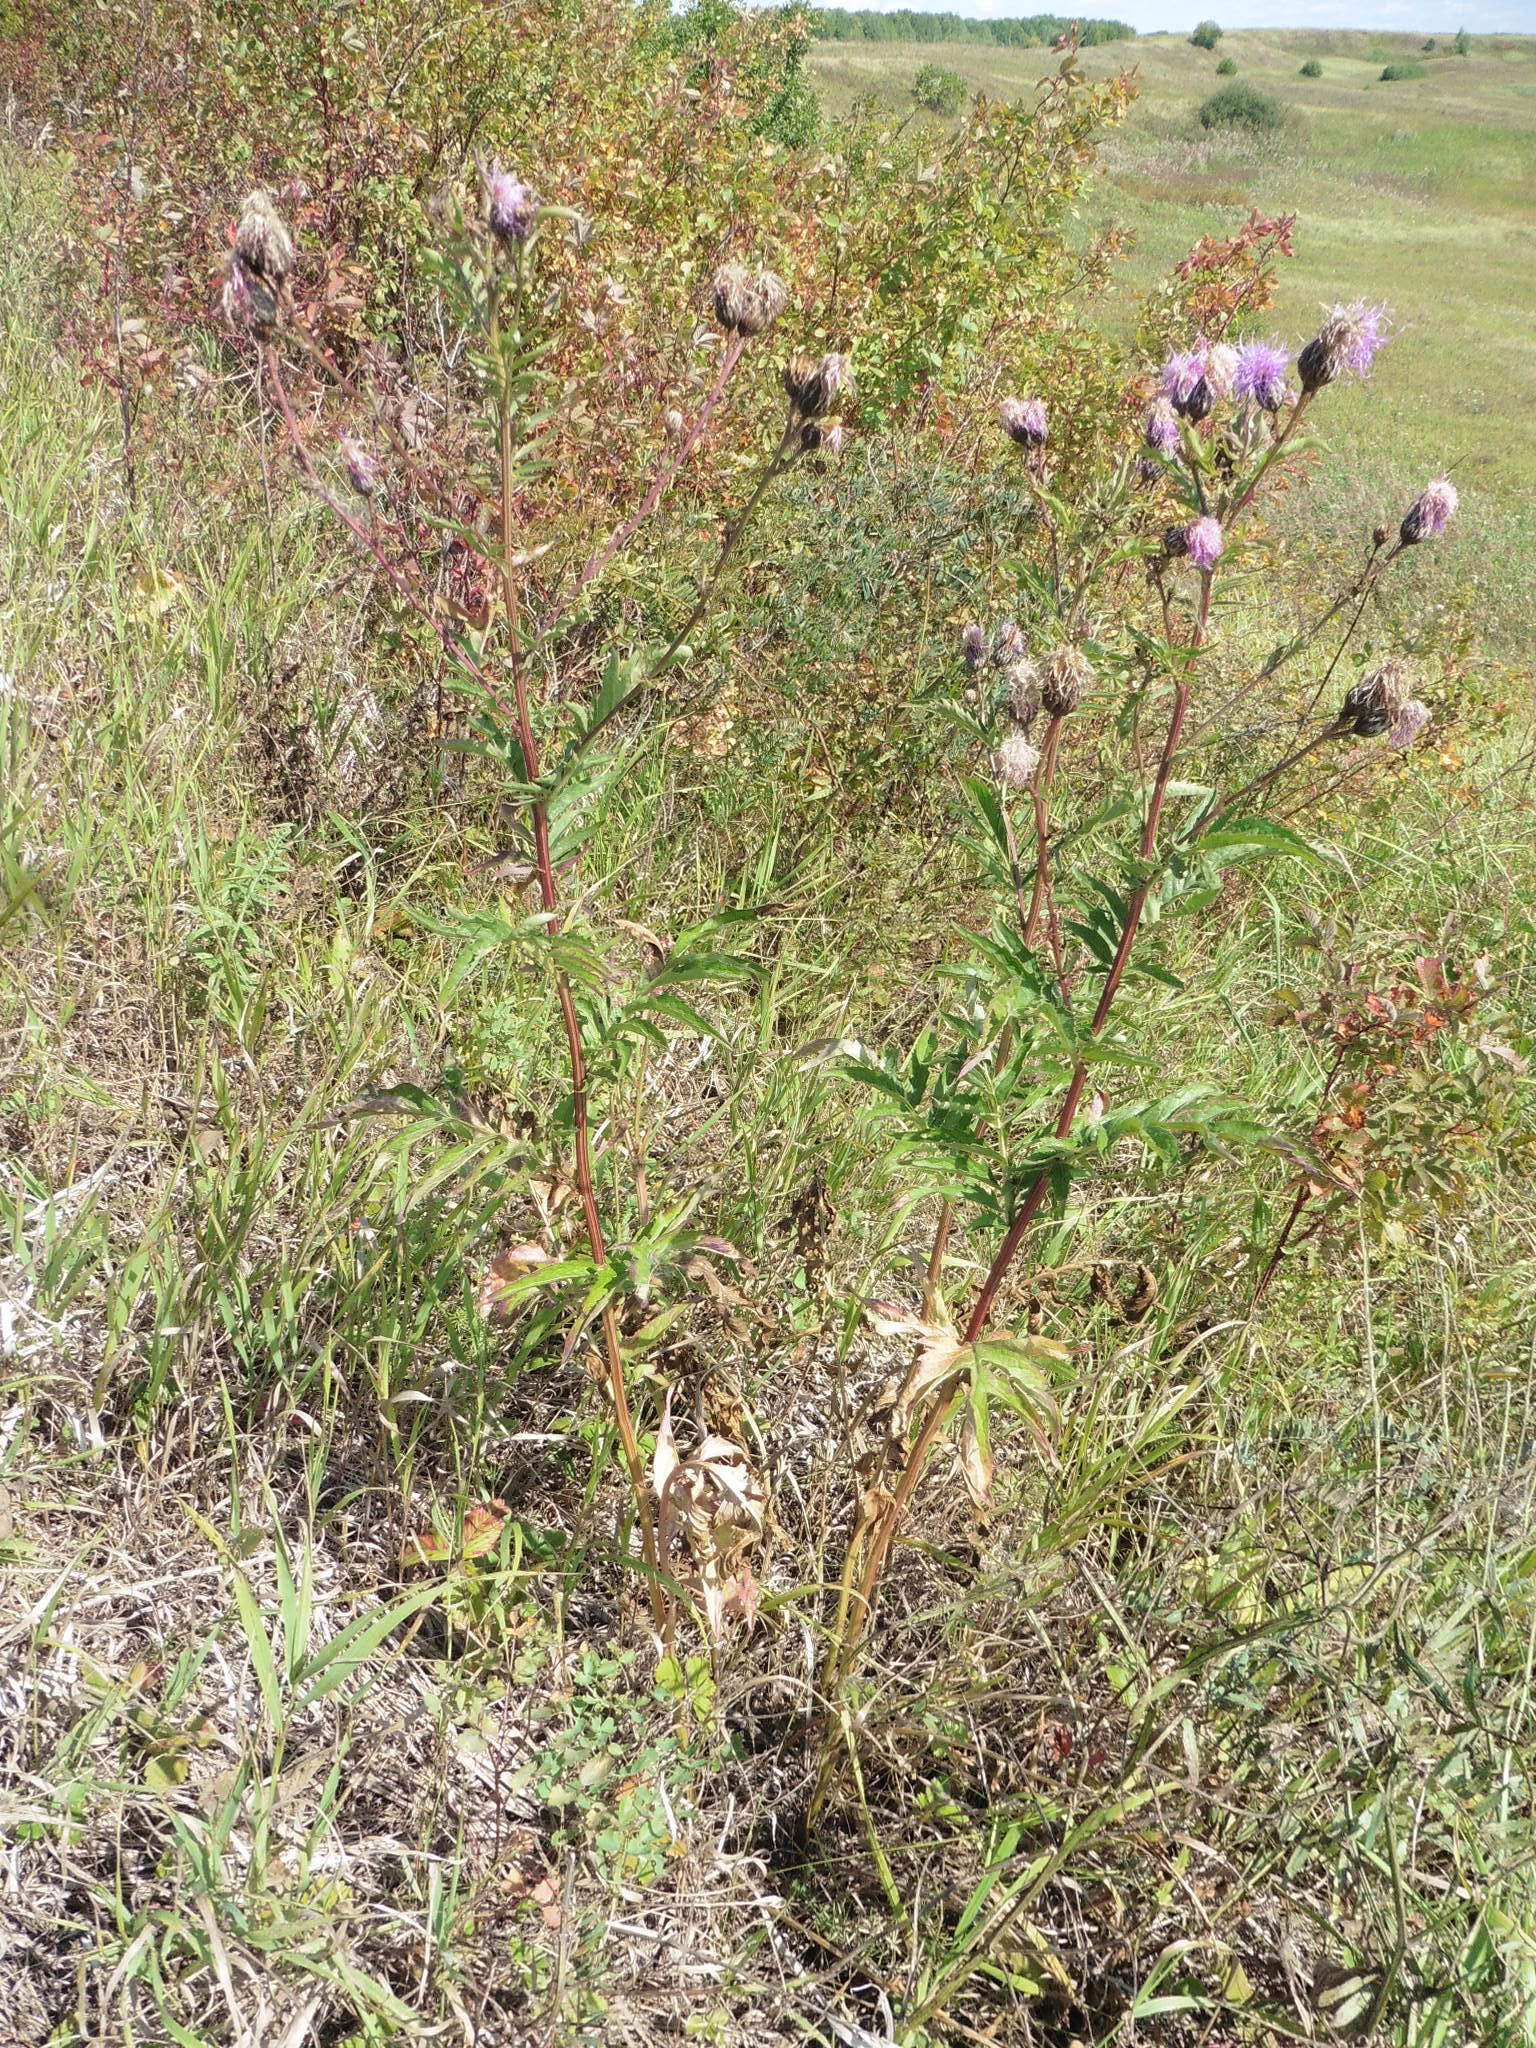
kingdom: Plantae
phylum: Tracheophyta
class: Magnoliopsida
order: Asterales
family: Asteraceae
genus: Serratula
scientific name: Serratula coronata
